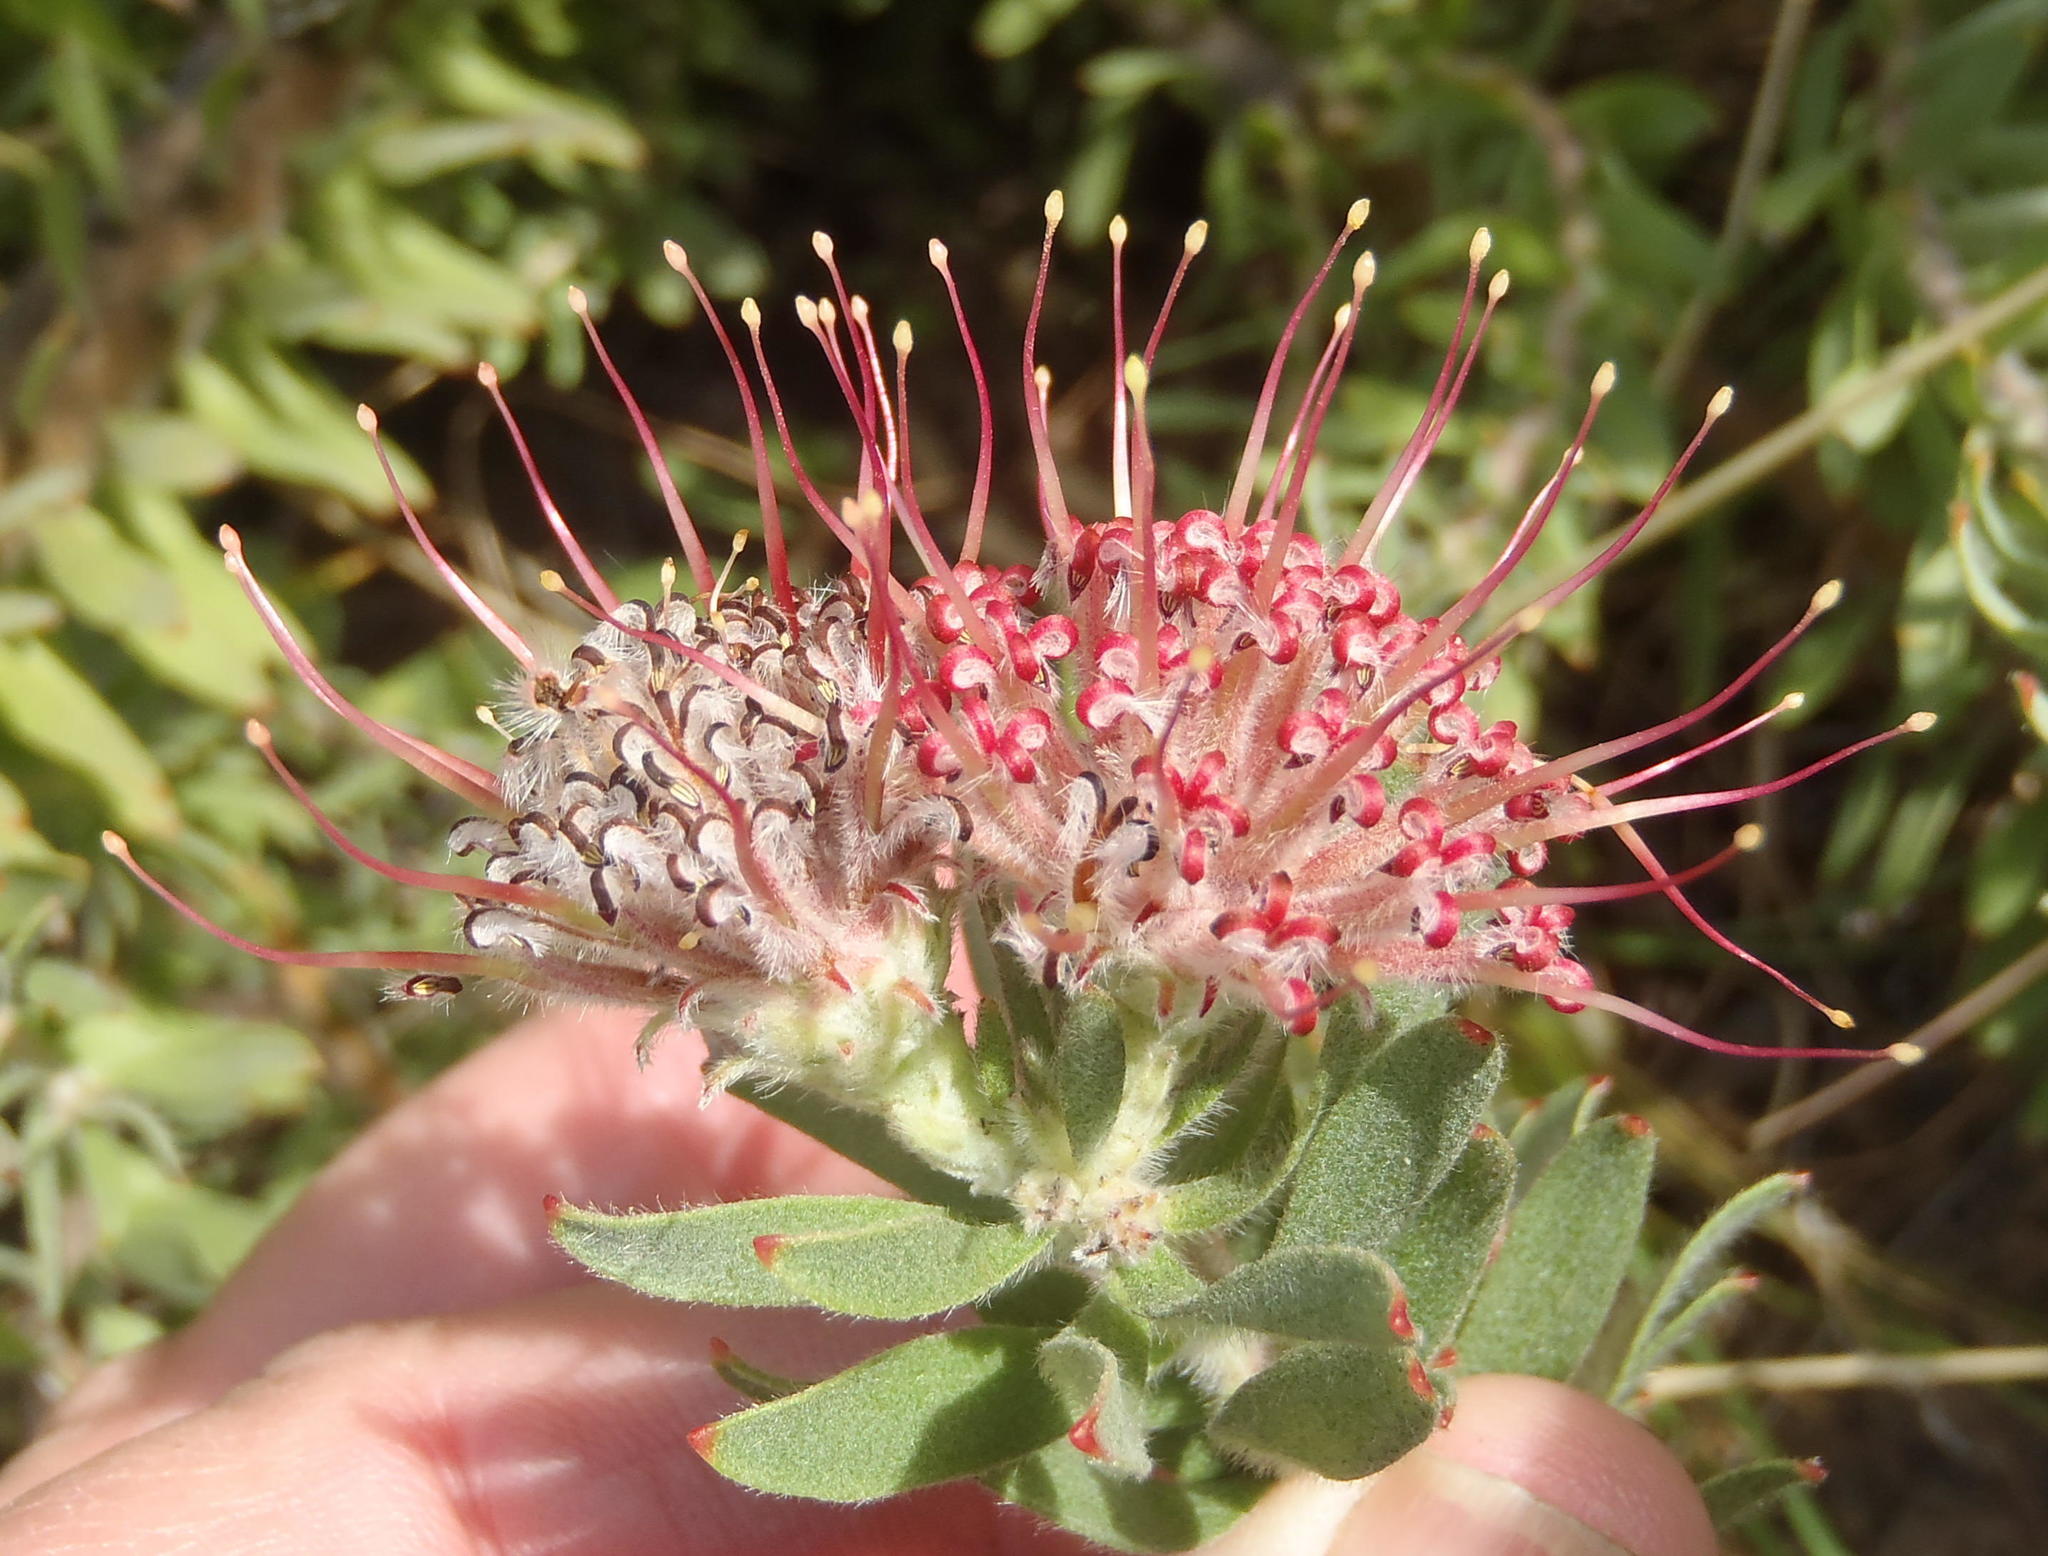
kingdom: Plantae
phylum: Tracheophyta
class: Magnoliopsida
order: Proteales
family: Proteaceae
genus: Leucospermum
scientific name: Leucospermum wittebergense
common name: Swartberg pincushion
